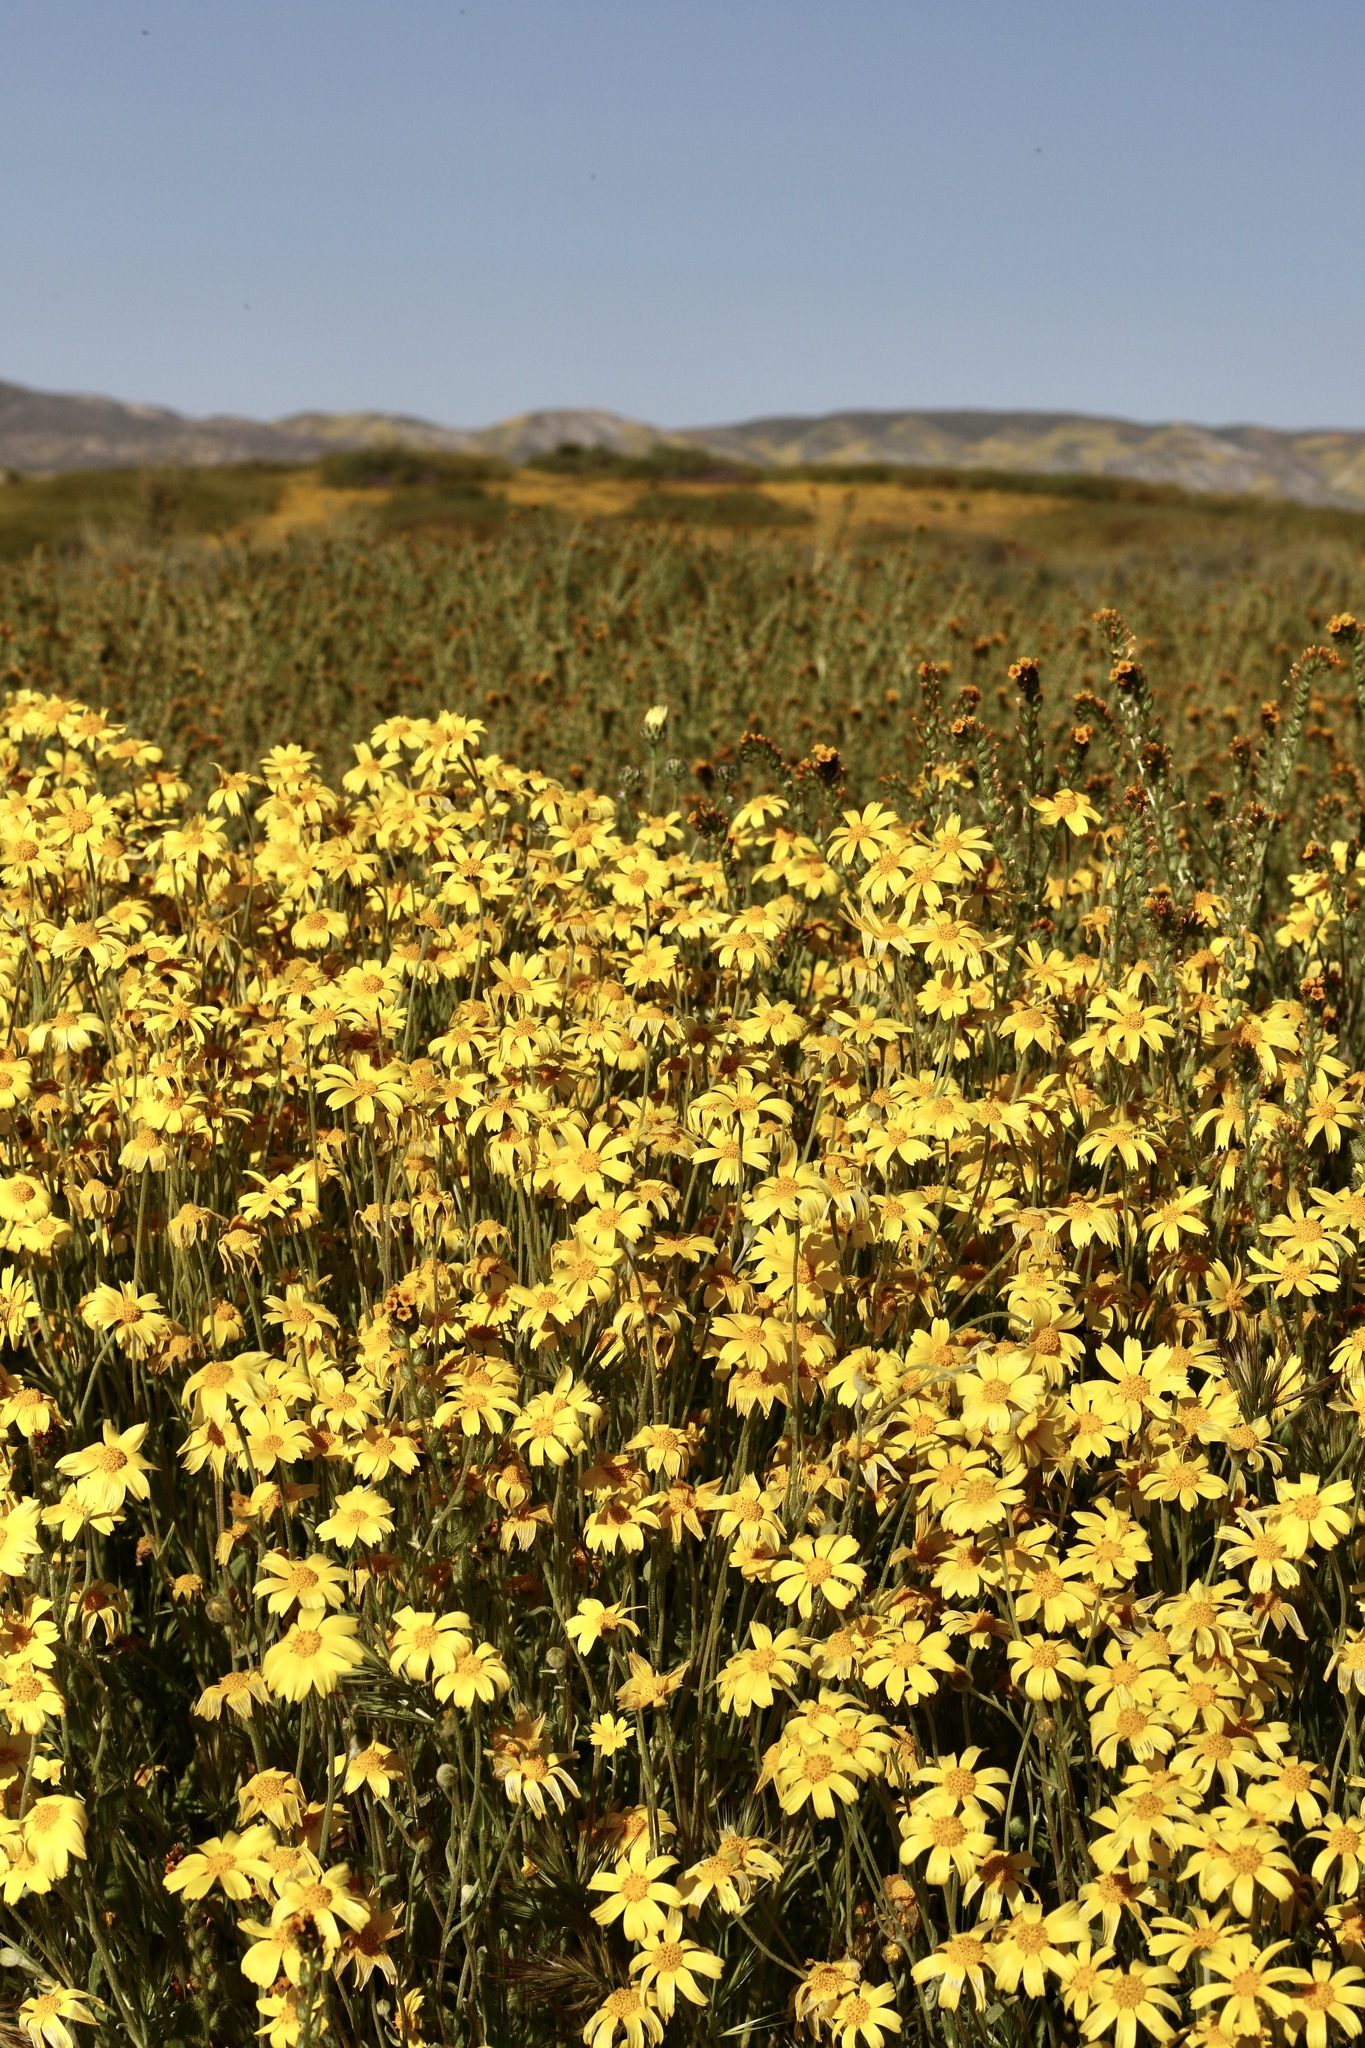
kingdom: Plantae
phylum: Tracheophyta
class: Magnoliopsida
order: Asterales
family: Asteraceae
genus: Monolopia
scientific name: Monolopia lanceolata
